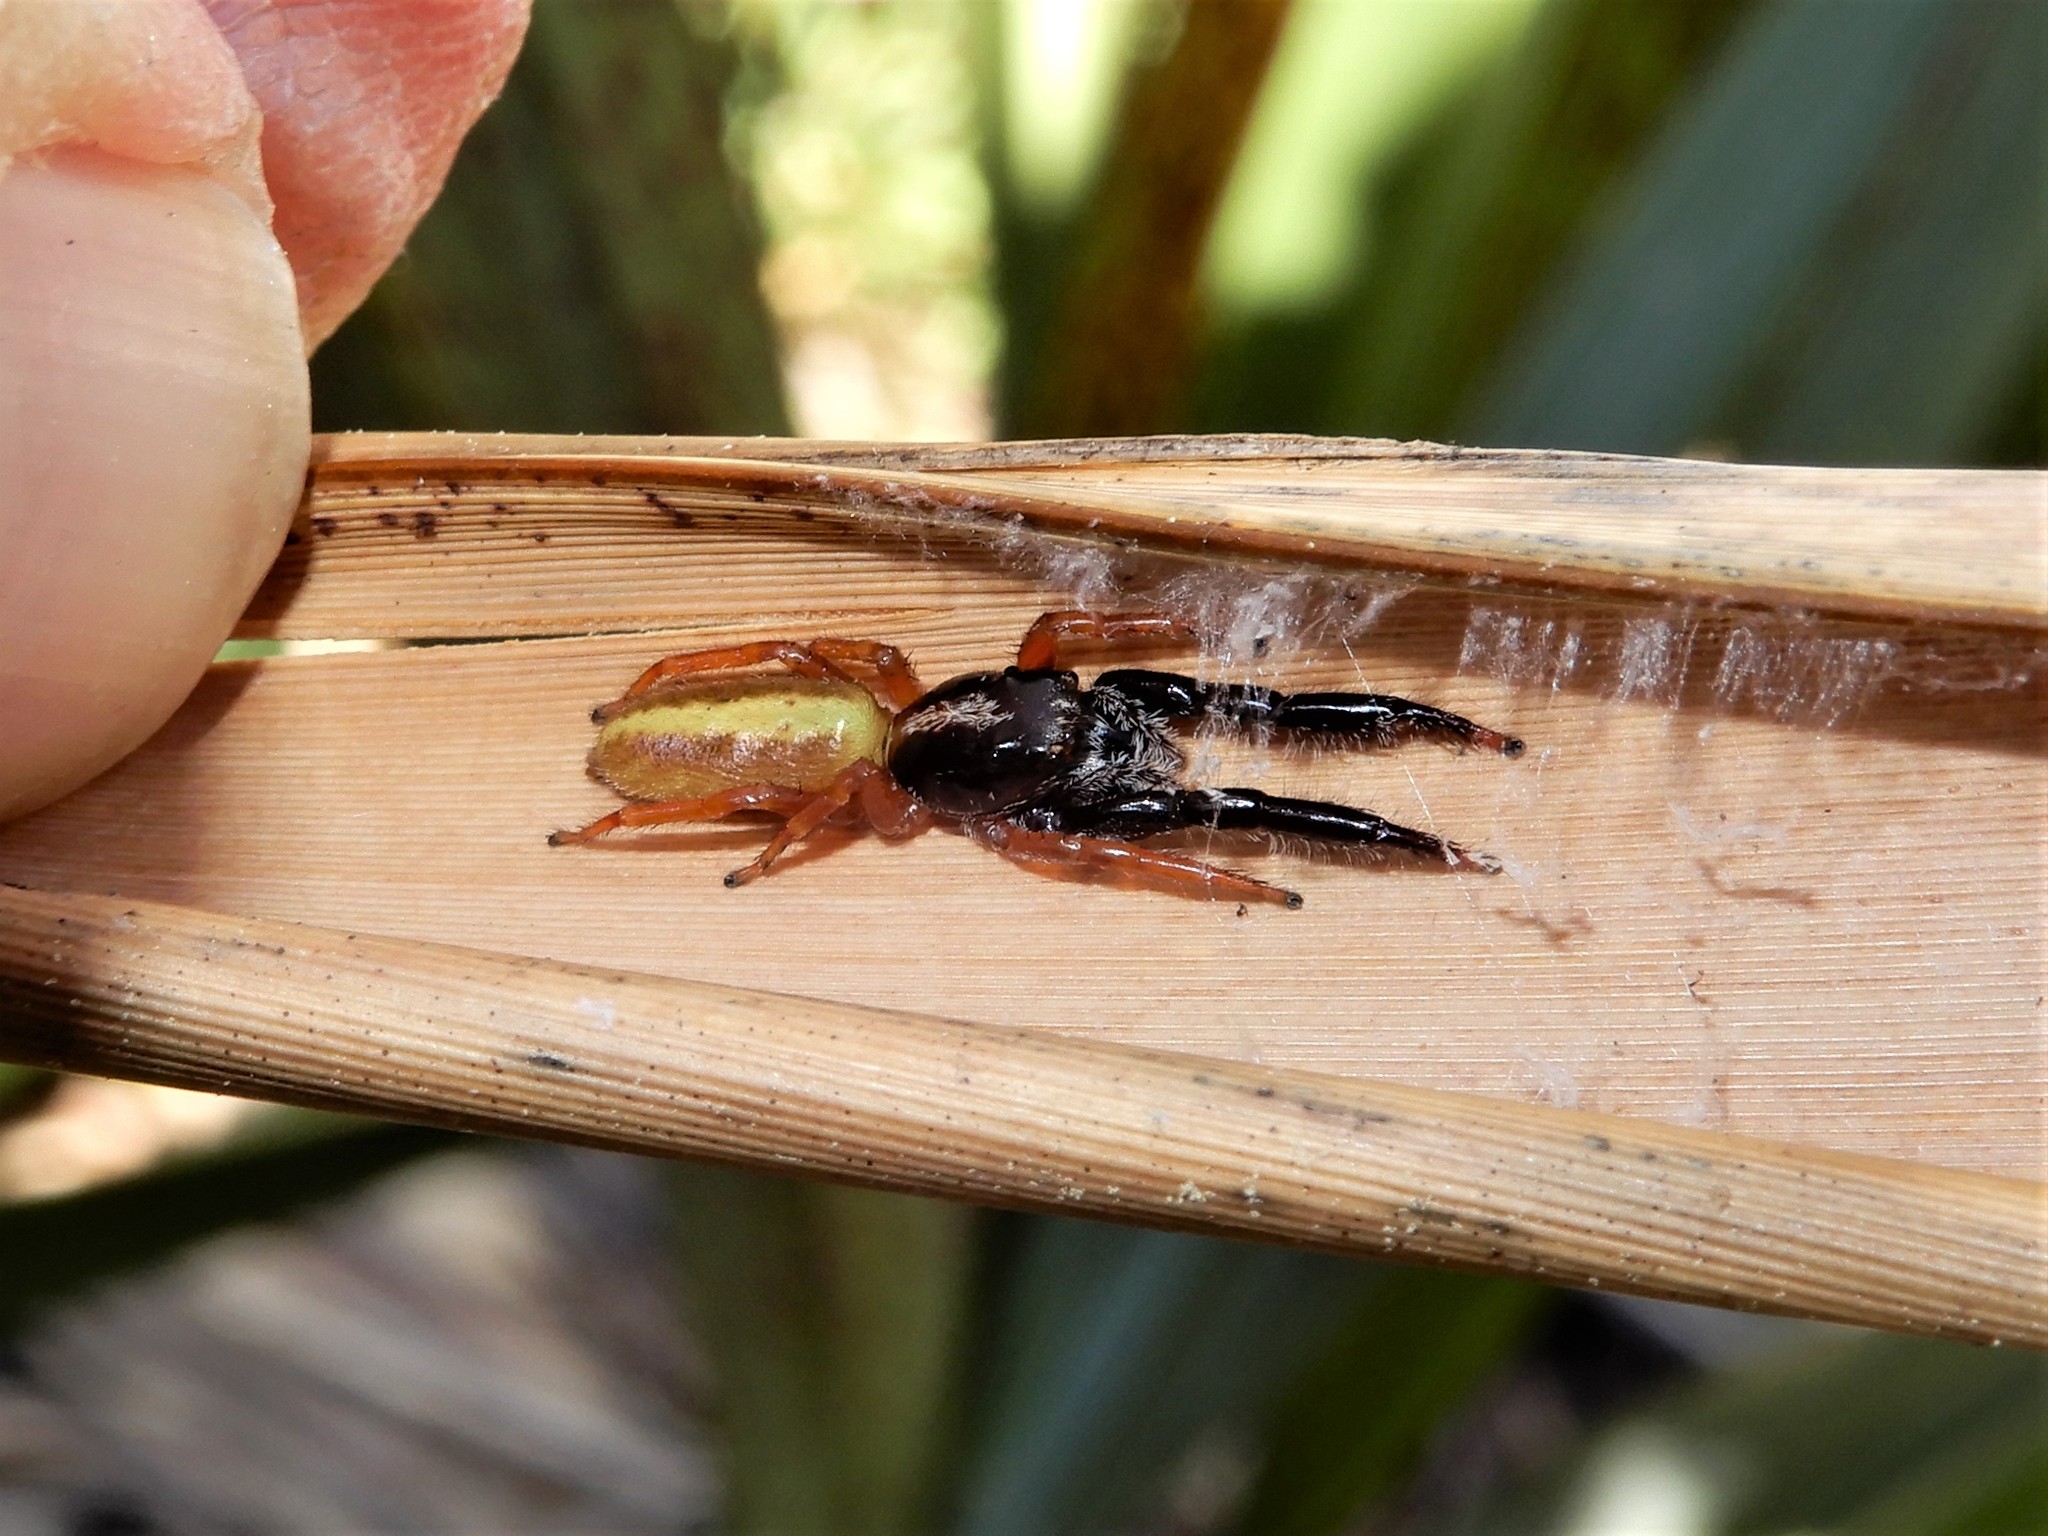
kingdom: Animalia
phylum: Arthropoda
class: Arachnida
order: Araneae
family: Salticidae
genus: Trite
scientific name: Trite planiceps
